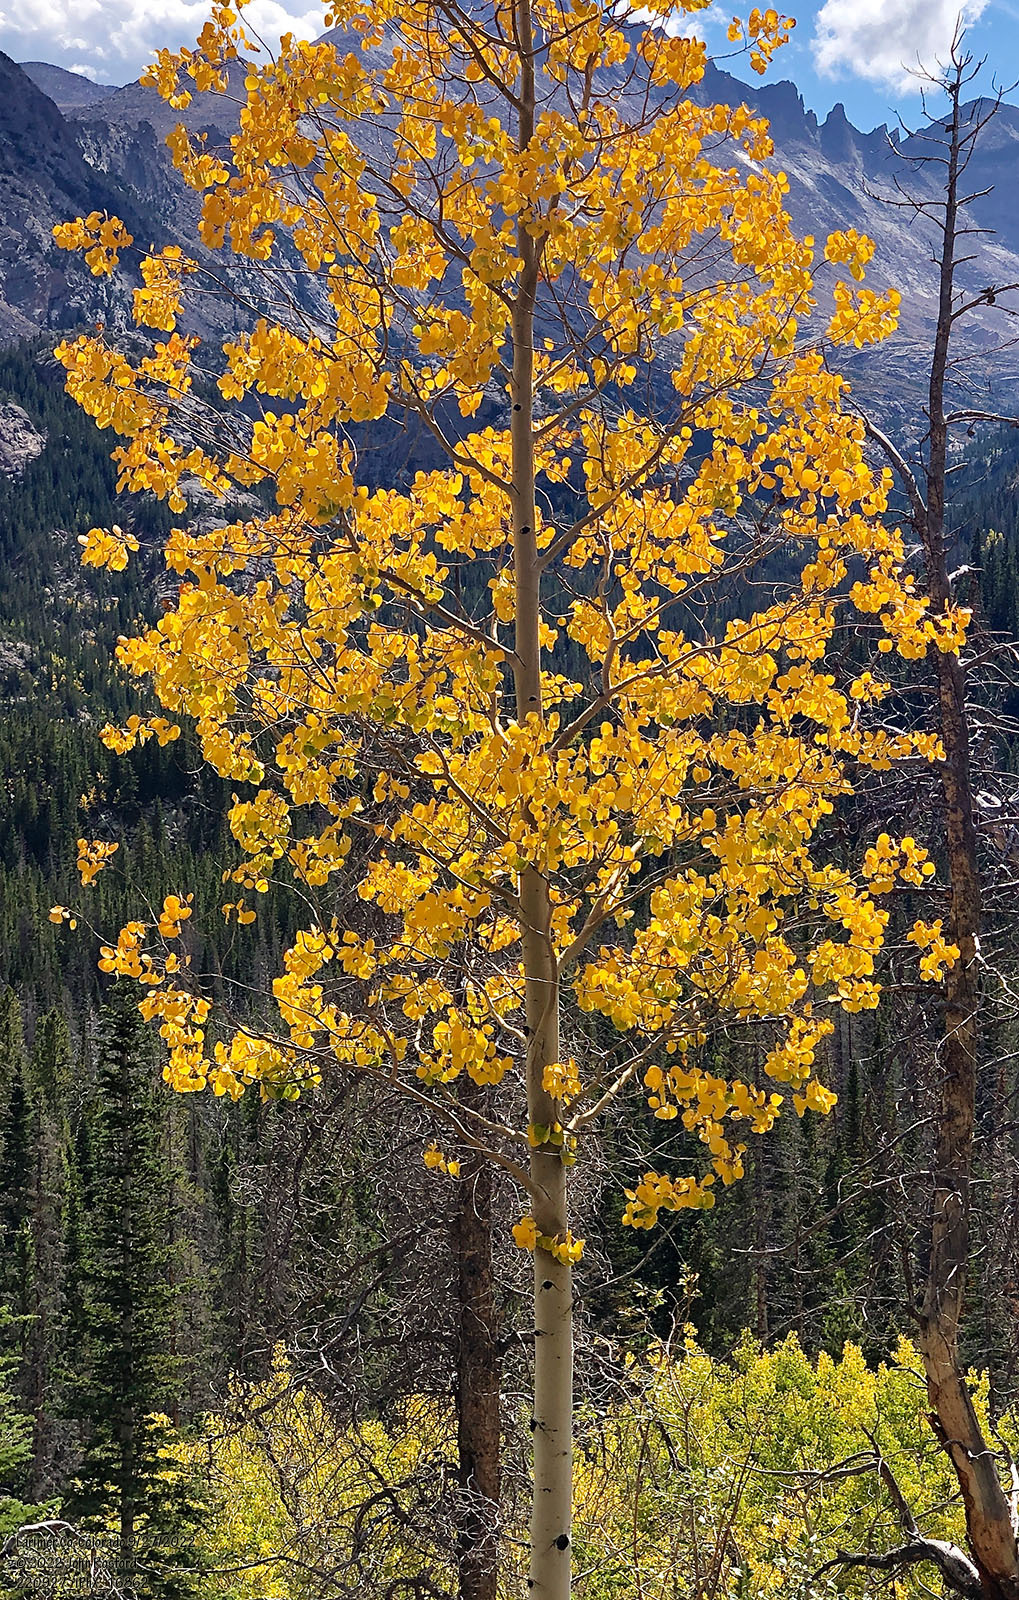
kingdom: Plantae
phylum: Tracheophyta
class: Magnoliopsida
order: Malpighiales
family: Salicaceae
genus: Populus
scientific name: Populus tremuloides
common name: Quaking aspen
